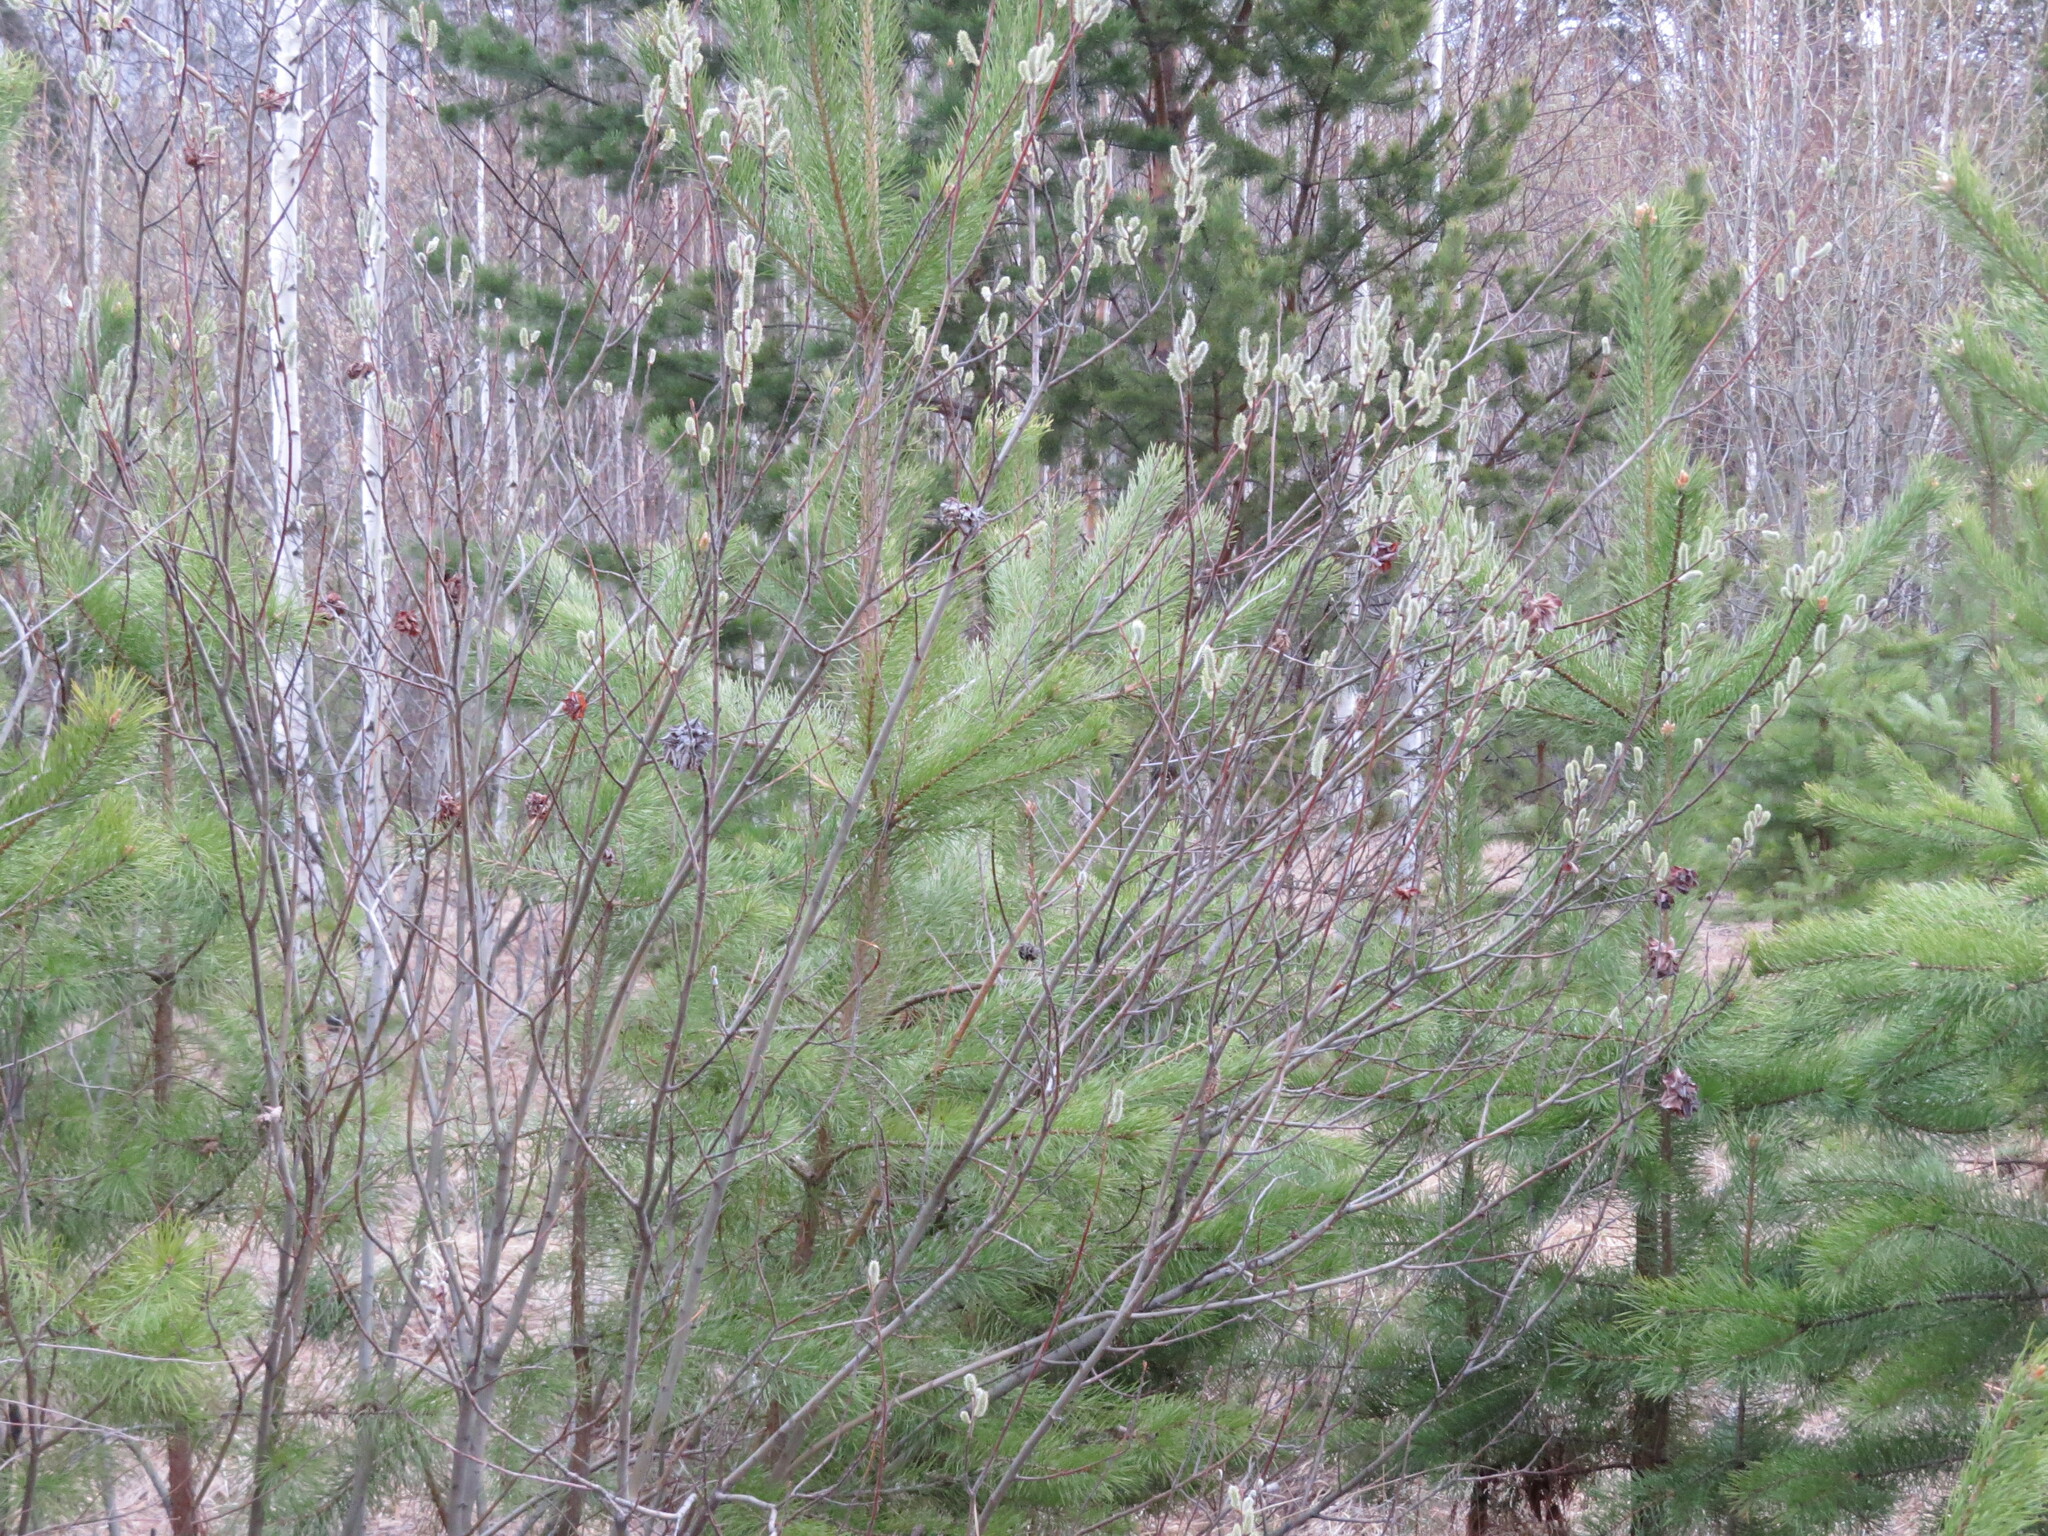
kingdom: Plantae
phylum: Tracheophyta
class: Pinopsida
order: Pinales
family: Pinaceae
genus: Pinus
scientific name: Pinus sylvestris
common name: Scots pine
